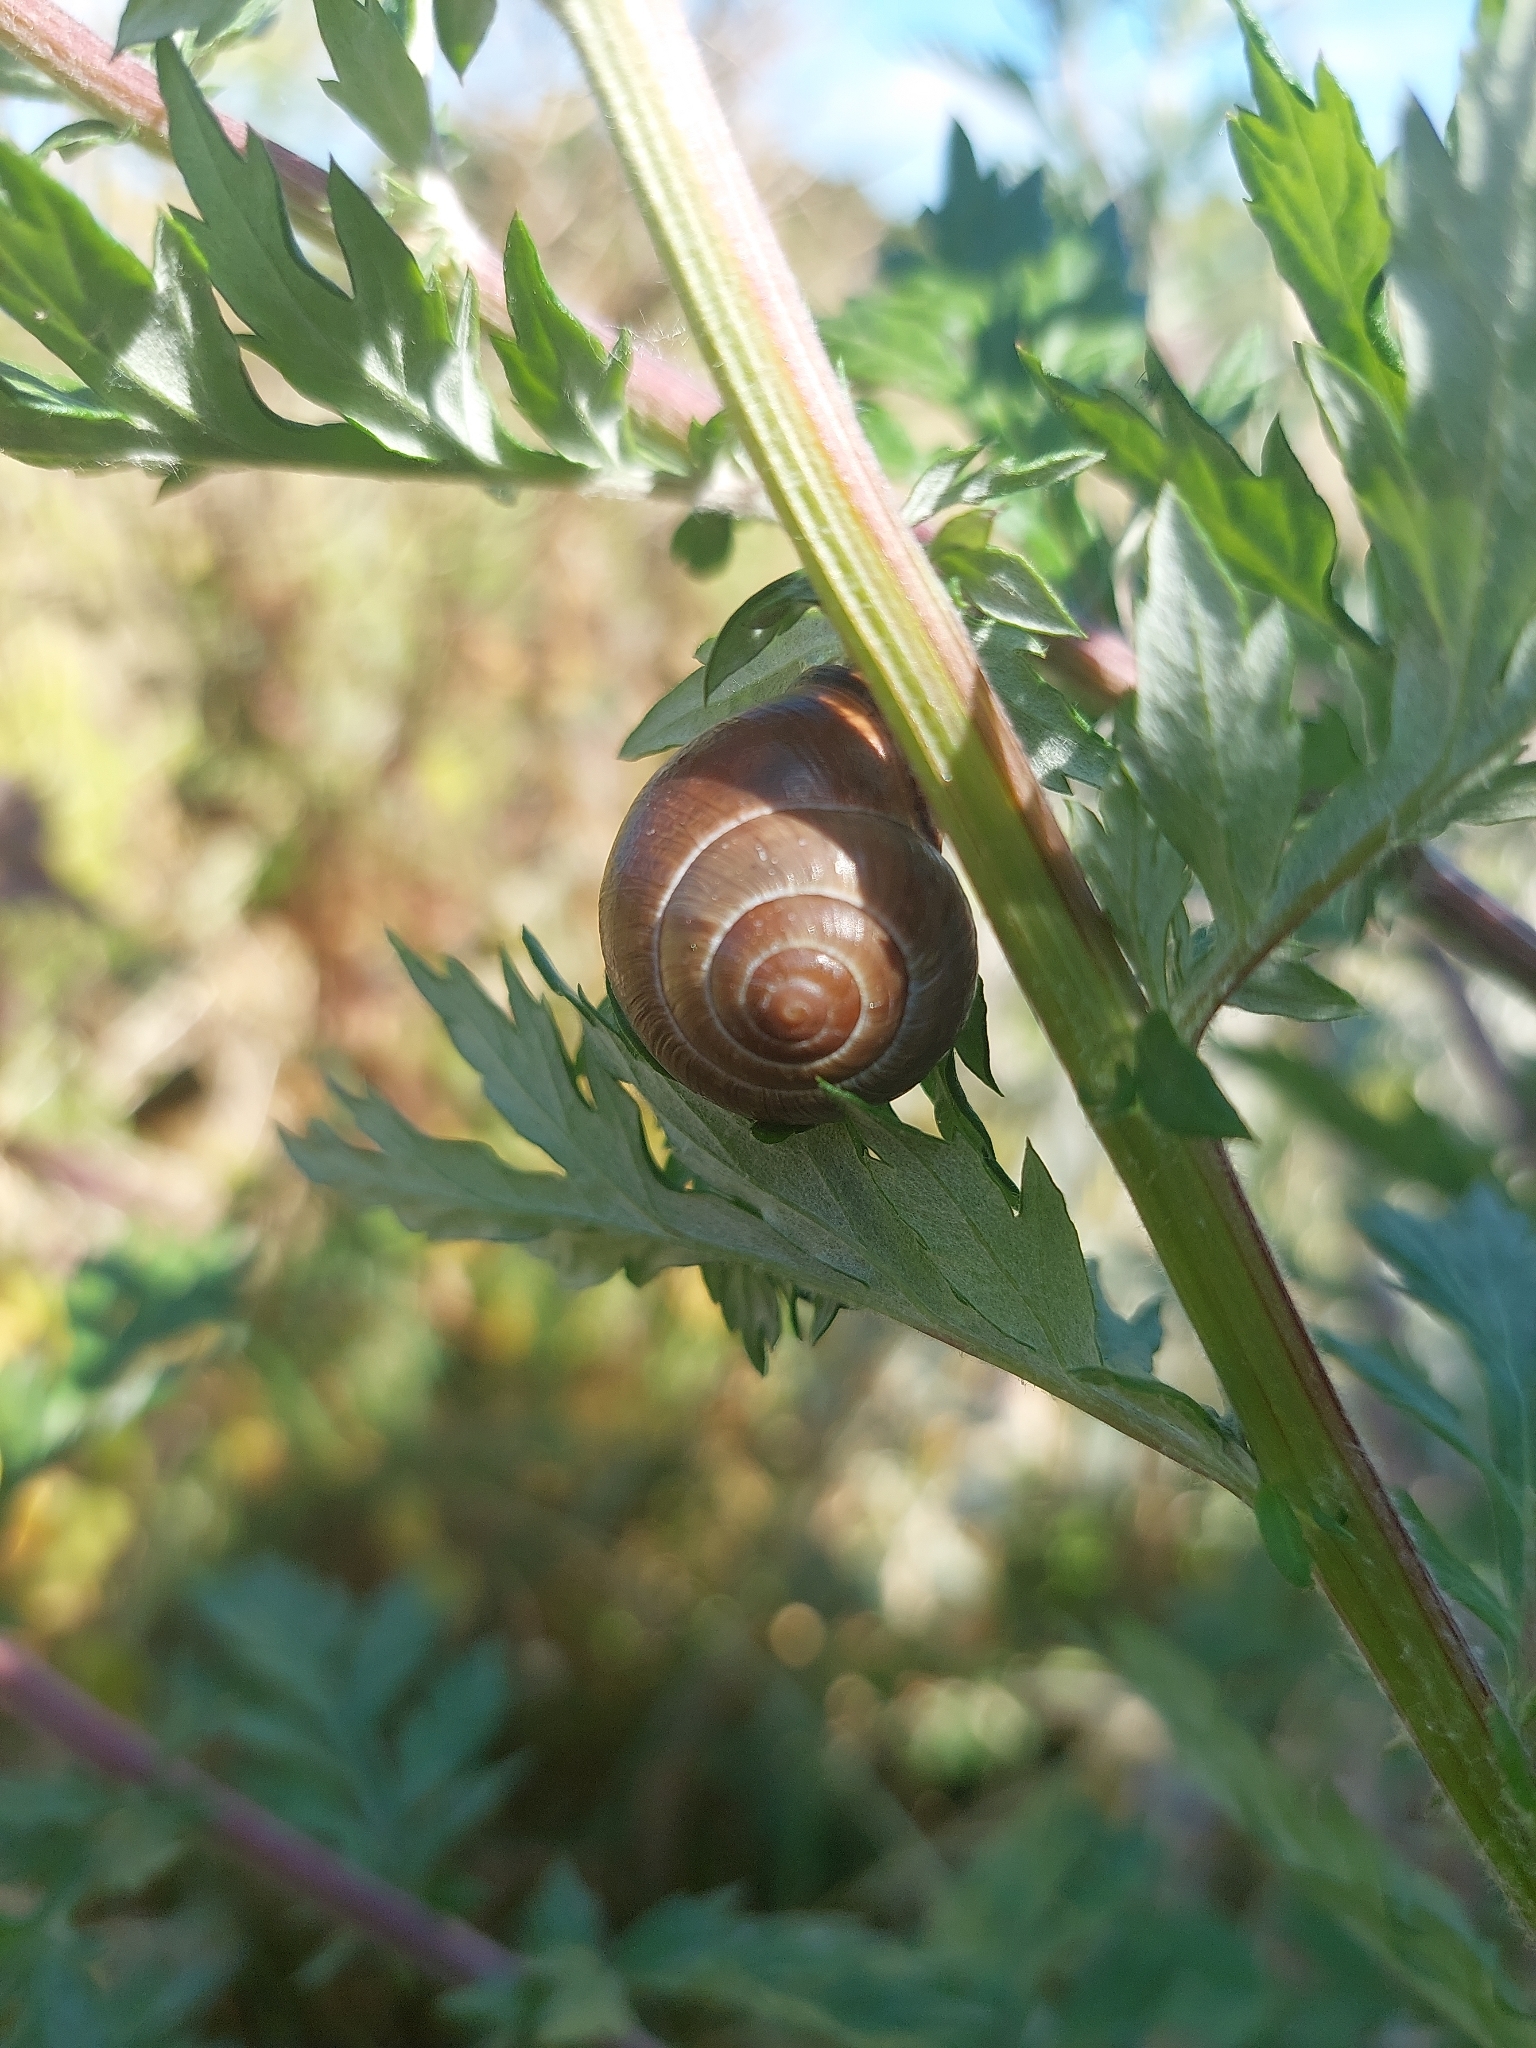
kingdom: Animalia
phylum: Mollusca
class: Gastropoda
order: Stylommatophora
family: Helicidae
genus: Cepaea
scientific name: Cepaea nemoralis
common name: Grovesnail
